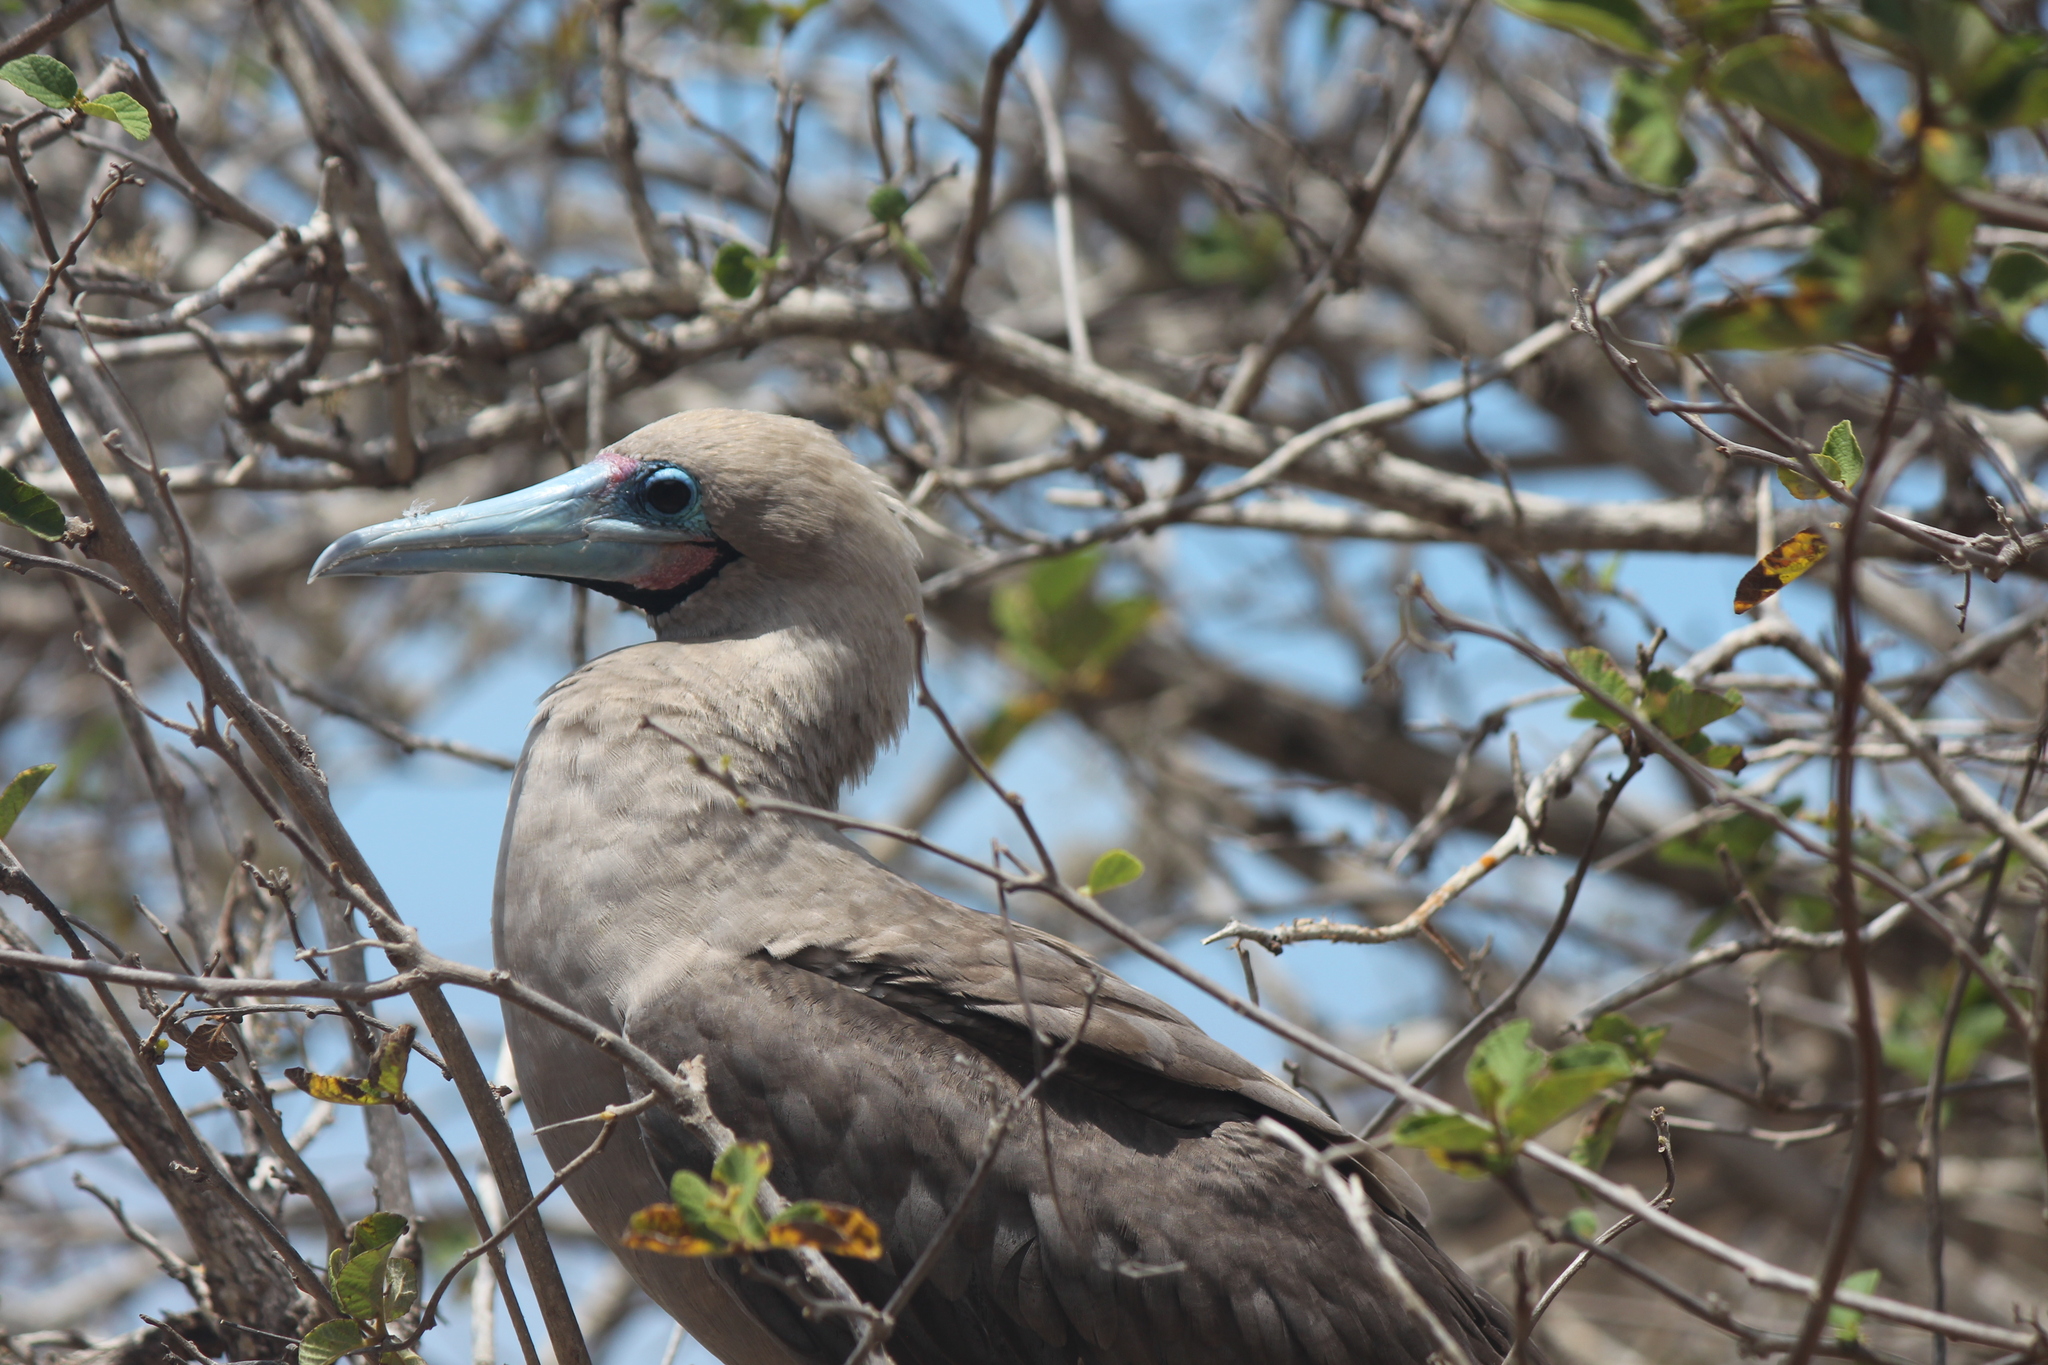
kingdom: Animalia
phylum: Chordata
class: Aves
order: Suliformes
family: Sulidae
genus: Sula
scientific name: Sula sula
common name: Red-footed booby
